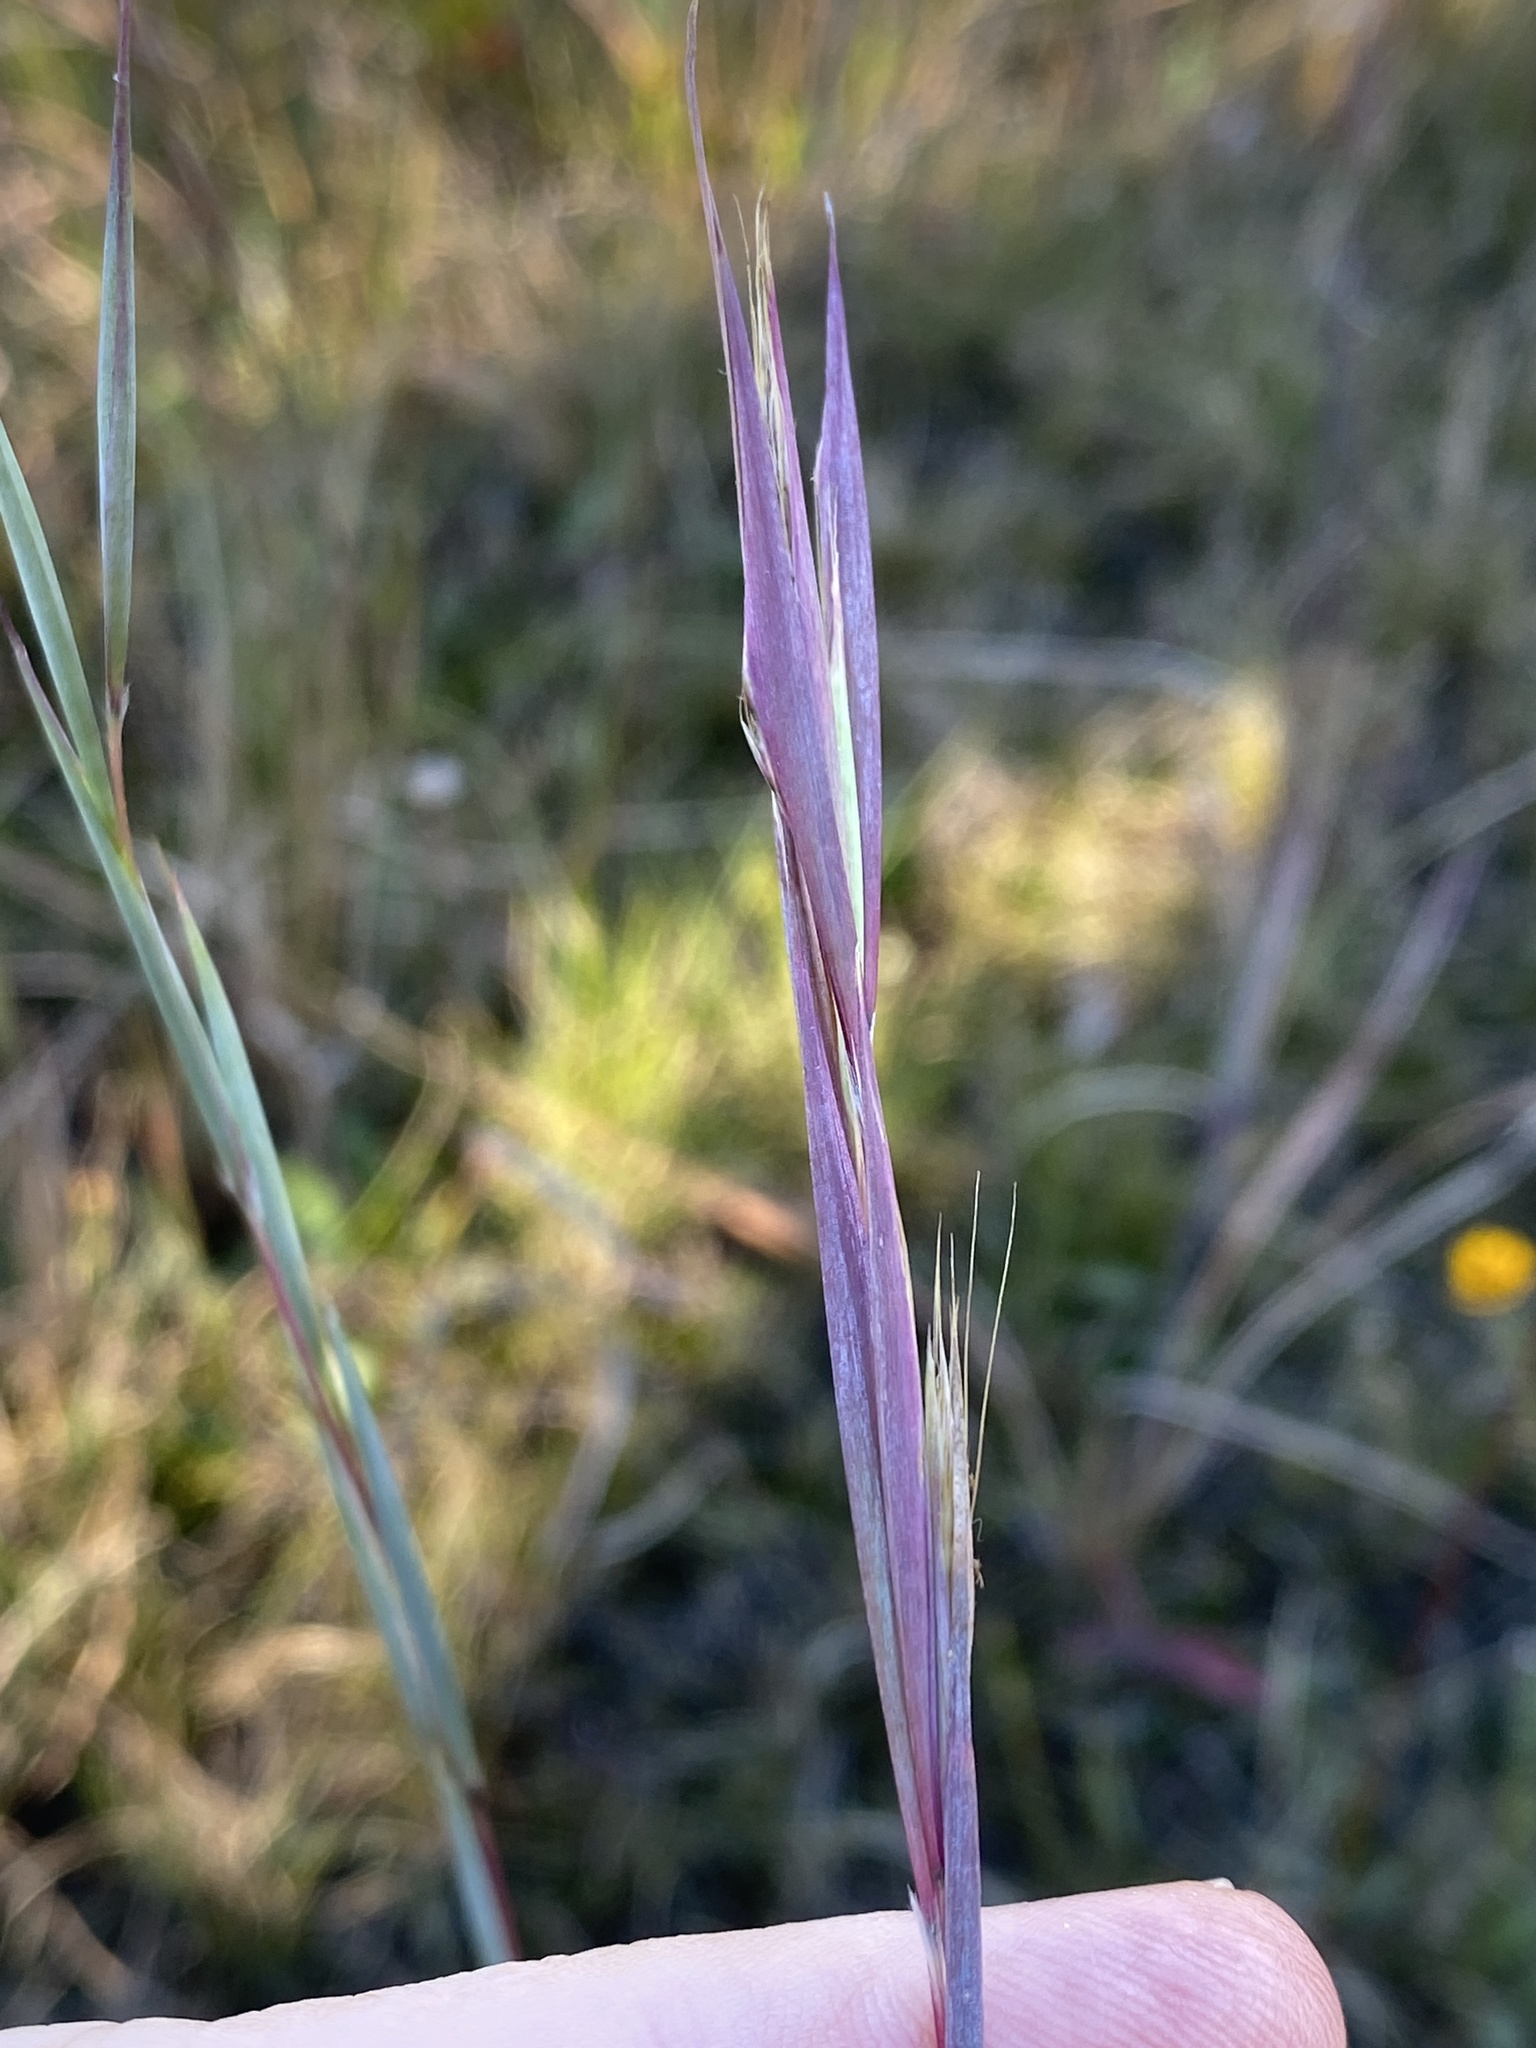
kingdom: Plantae
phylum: Tracheophyta
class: Liliopsida
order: Poales
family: Poaceae
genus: Andropogon
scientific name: Andropogon cretaceus
